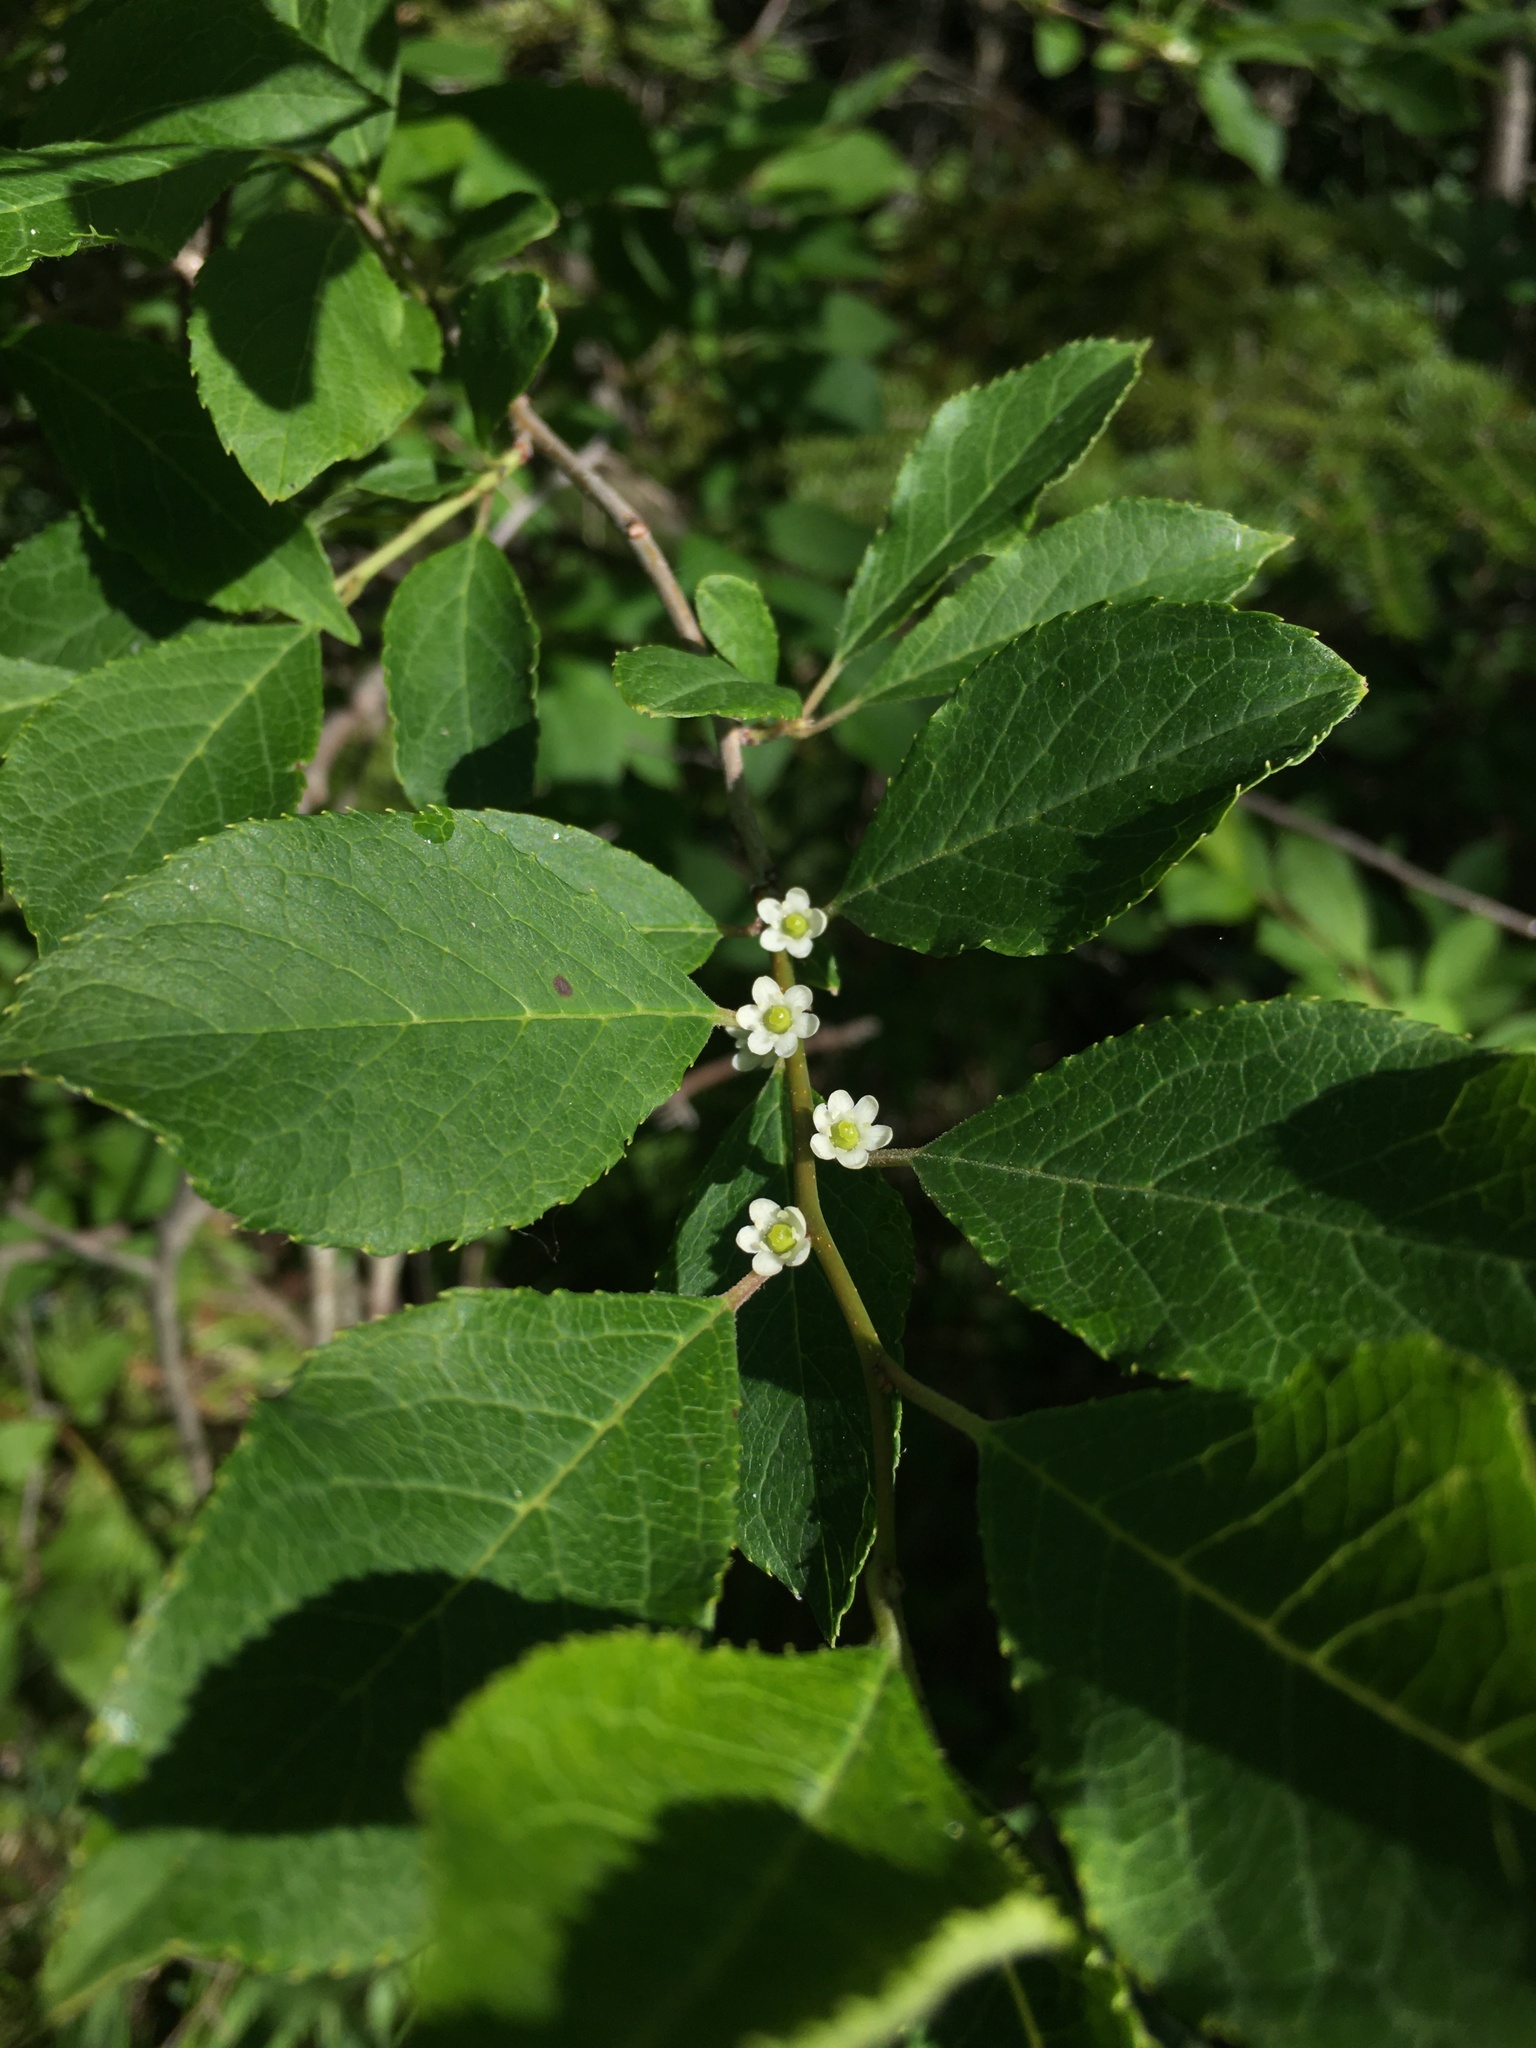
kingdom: Plantae
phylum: Tracheophyta
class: Magnoliopsida
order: Aquifoliales
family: Aquifoliaceae
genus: Ilex
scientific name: Ilex verticillata
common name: Virginia winterberry
